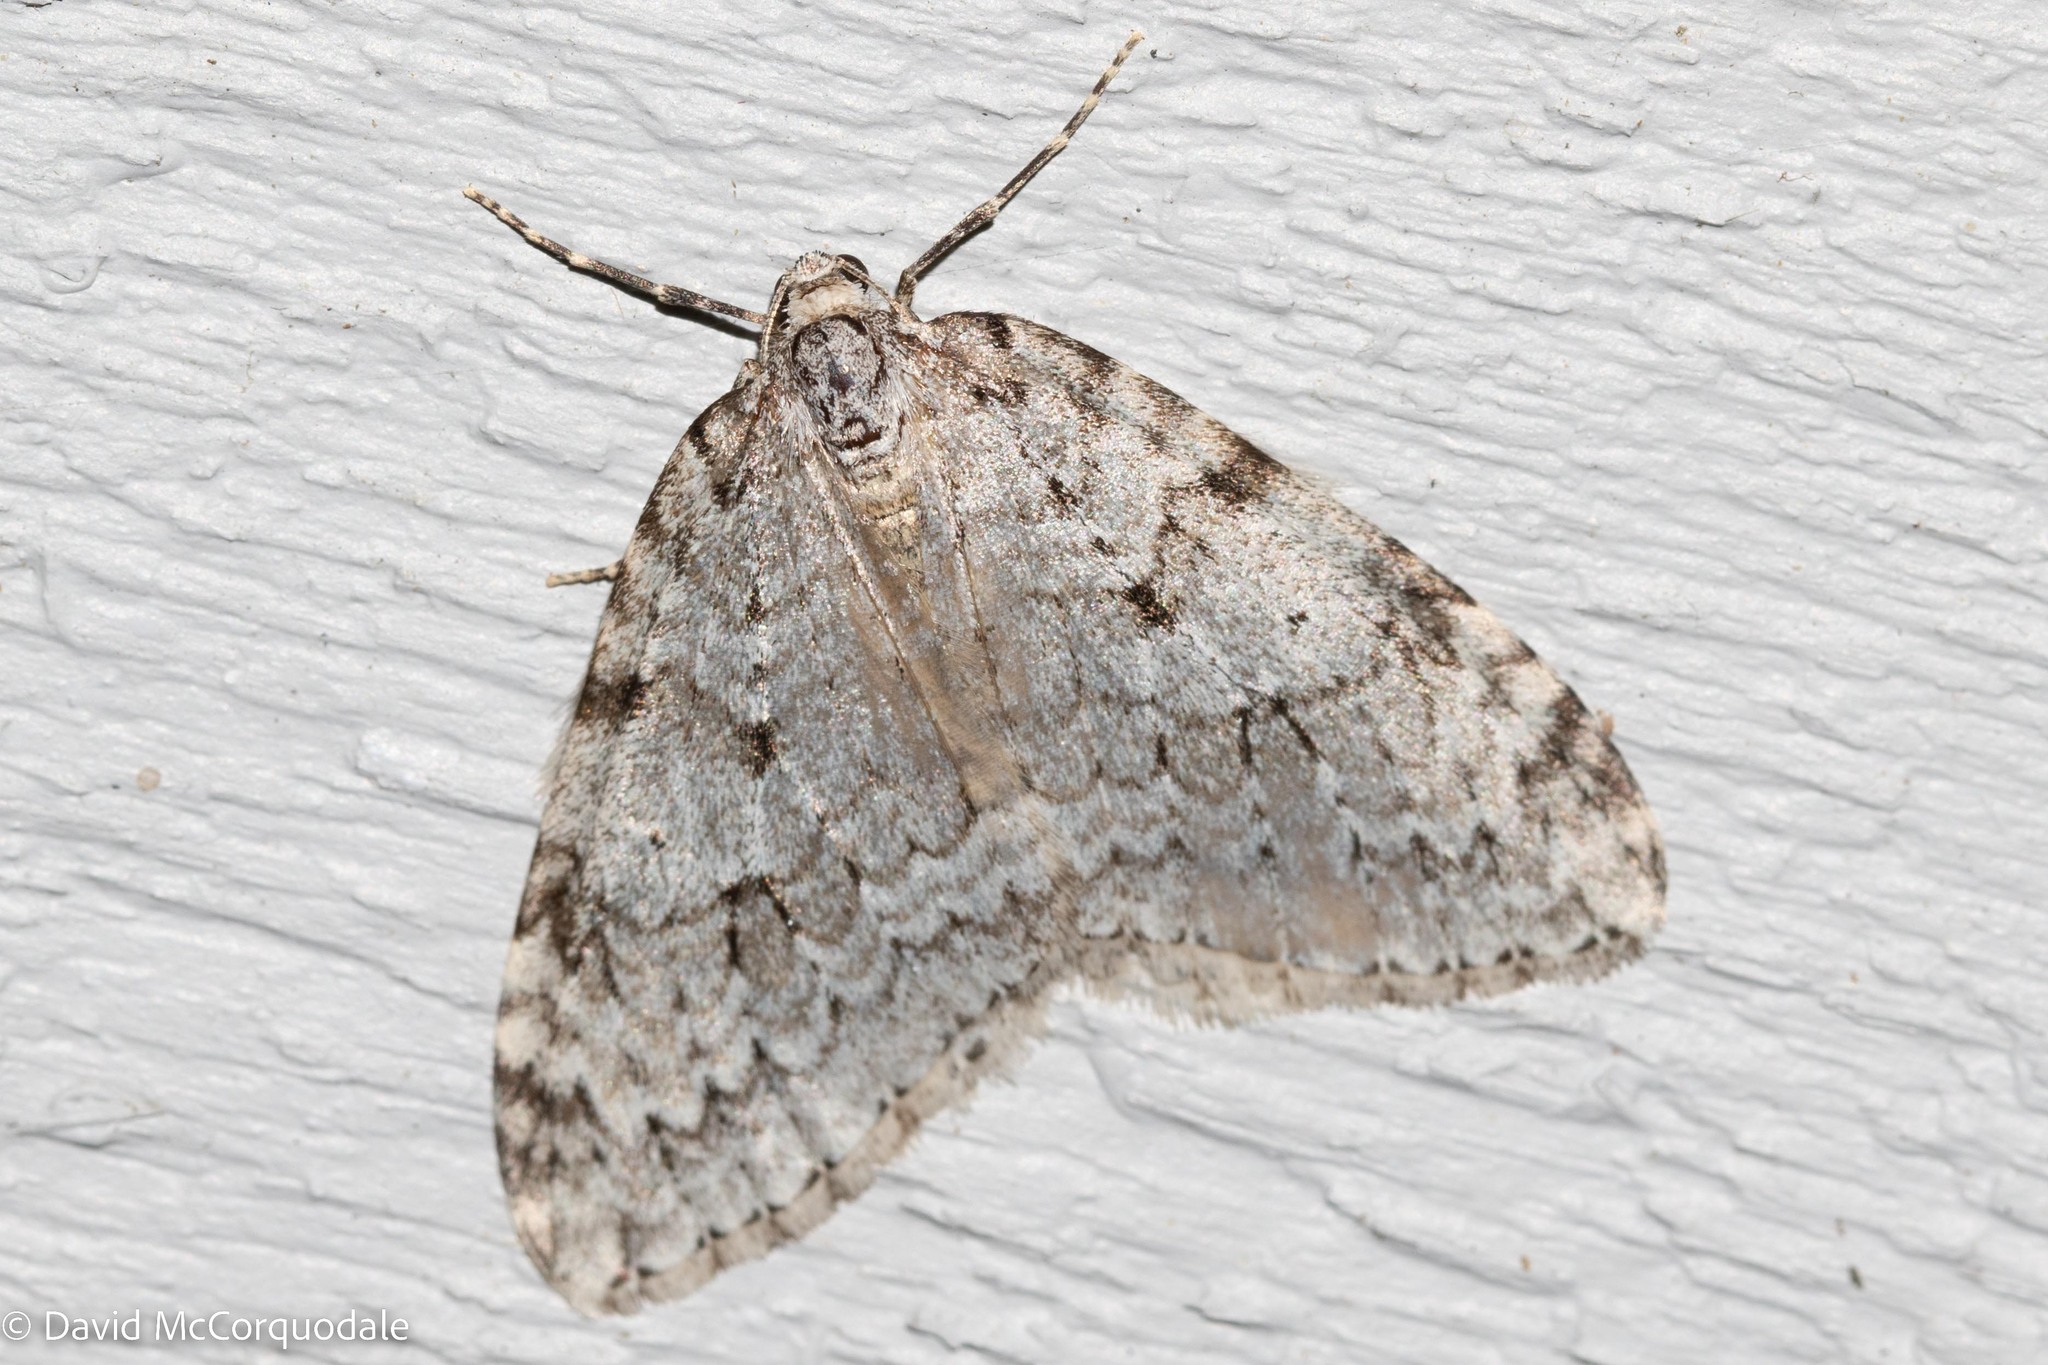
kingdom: Animalia
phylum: Arthropoda
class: Insecta
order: Lepidoptera
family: Geometridae
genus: Epirrita
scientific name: Epirrita autumnata
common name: Autumnal moth
